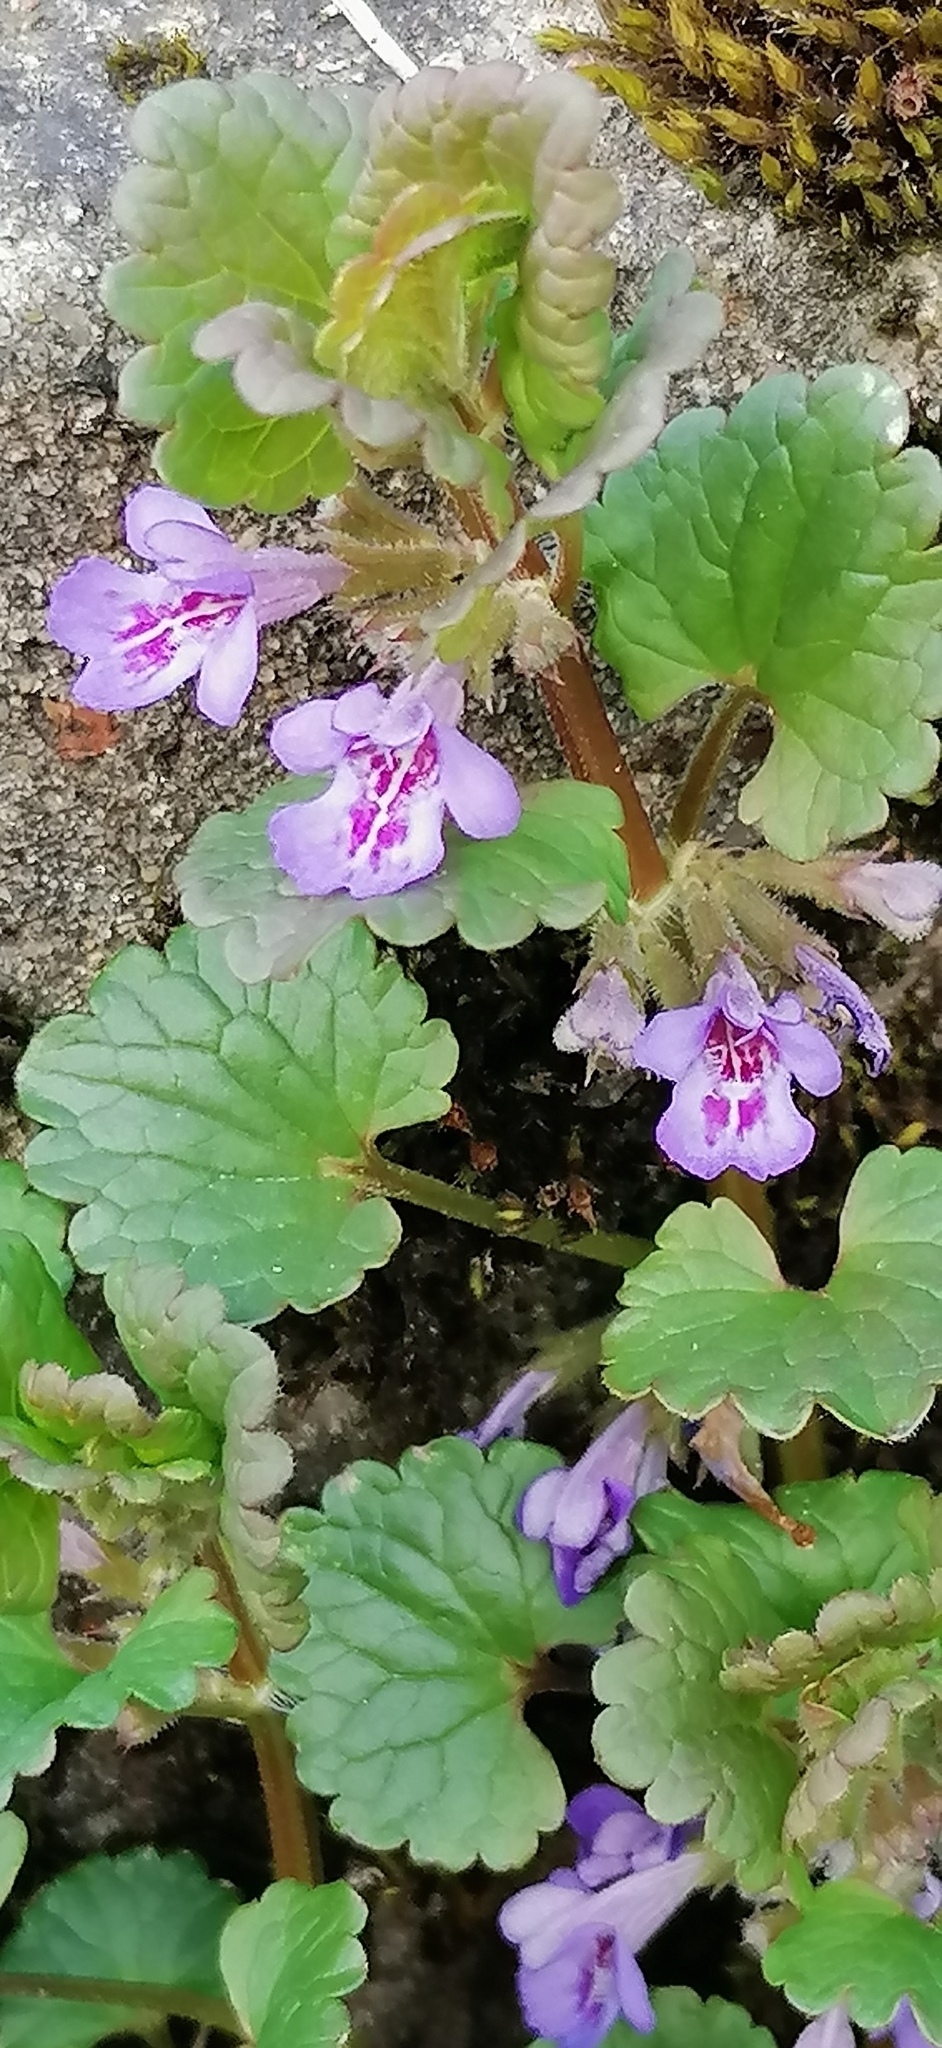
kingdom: Plantae
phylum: Tracheophyta
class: Magnoliopsida
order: Lamiales
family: Lamiaceae
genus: Glechoma
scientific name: Glechoma hederacea
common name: Ground ivy
